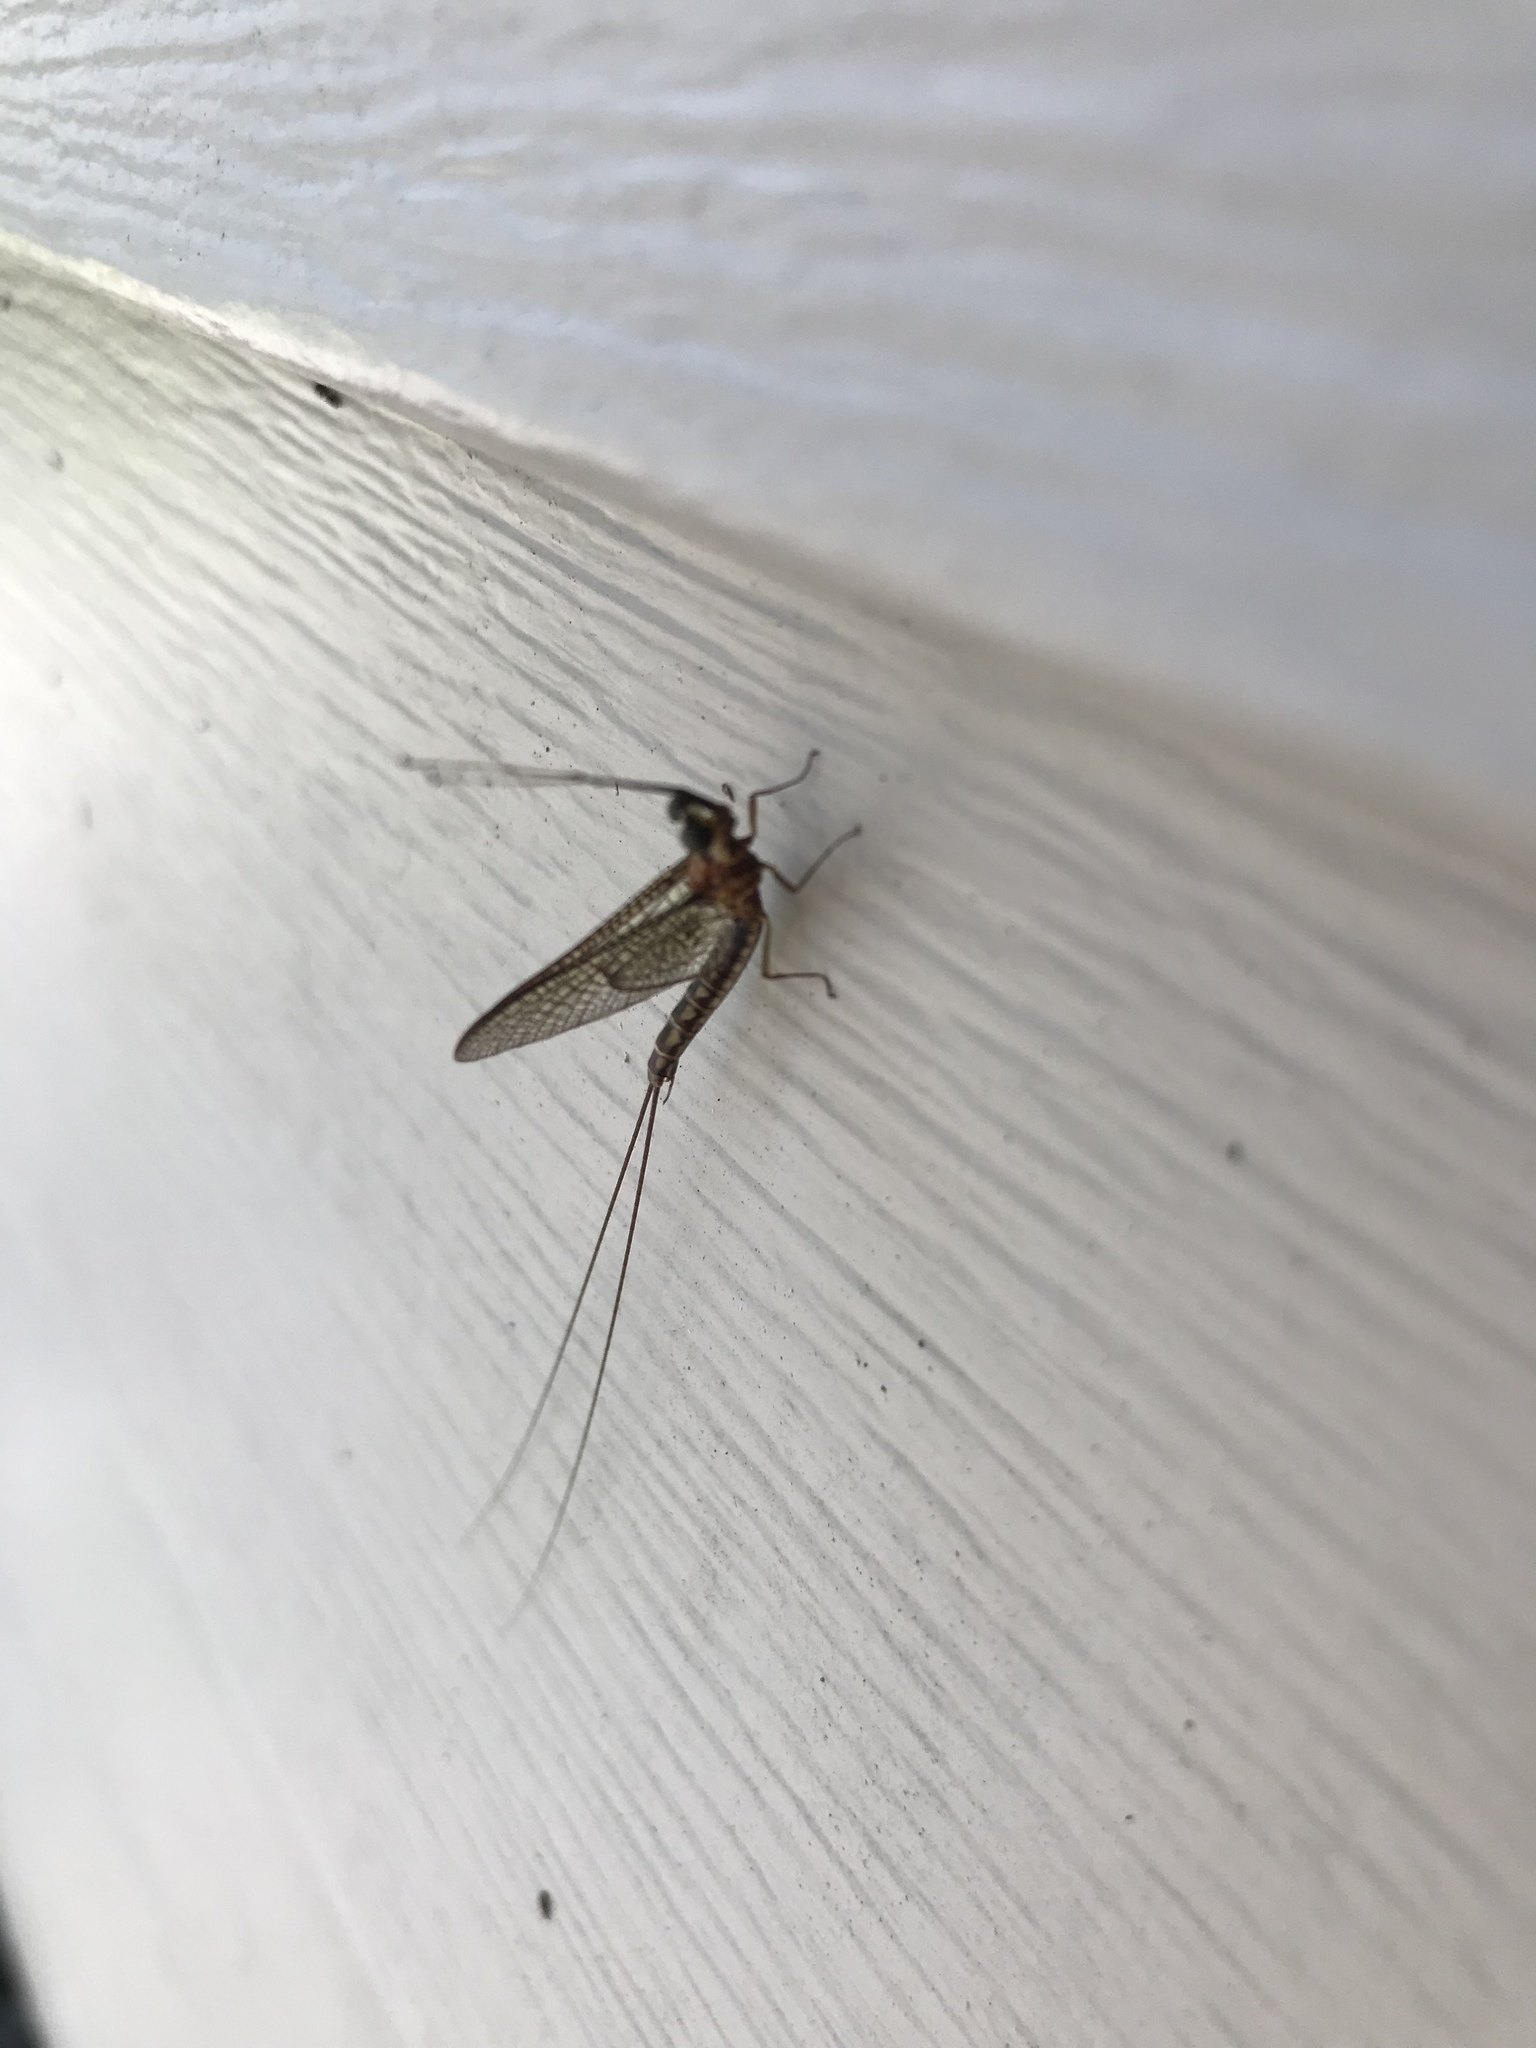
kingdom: Animalia
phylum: Arthropoda
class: Insecta
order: Ephemeroptera
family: Ephemeridae
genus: Hexagenia
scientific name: Hexagenia limbata
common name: Giant mayfly
